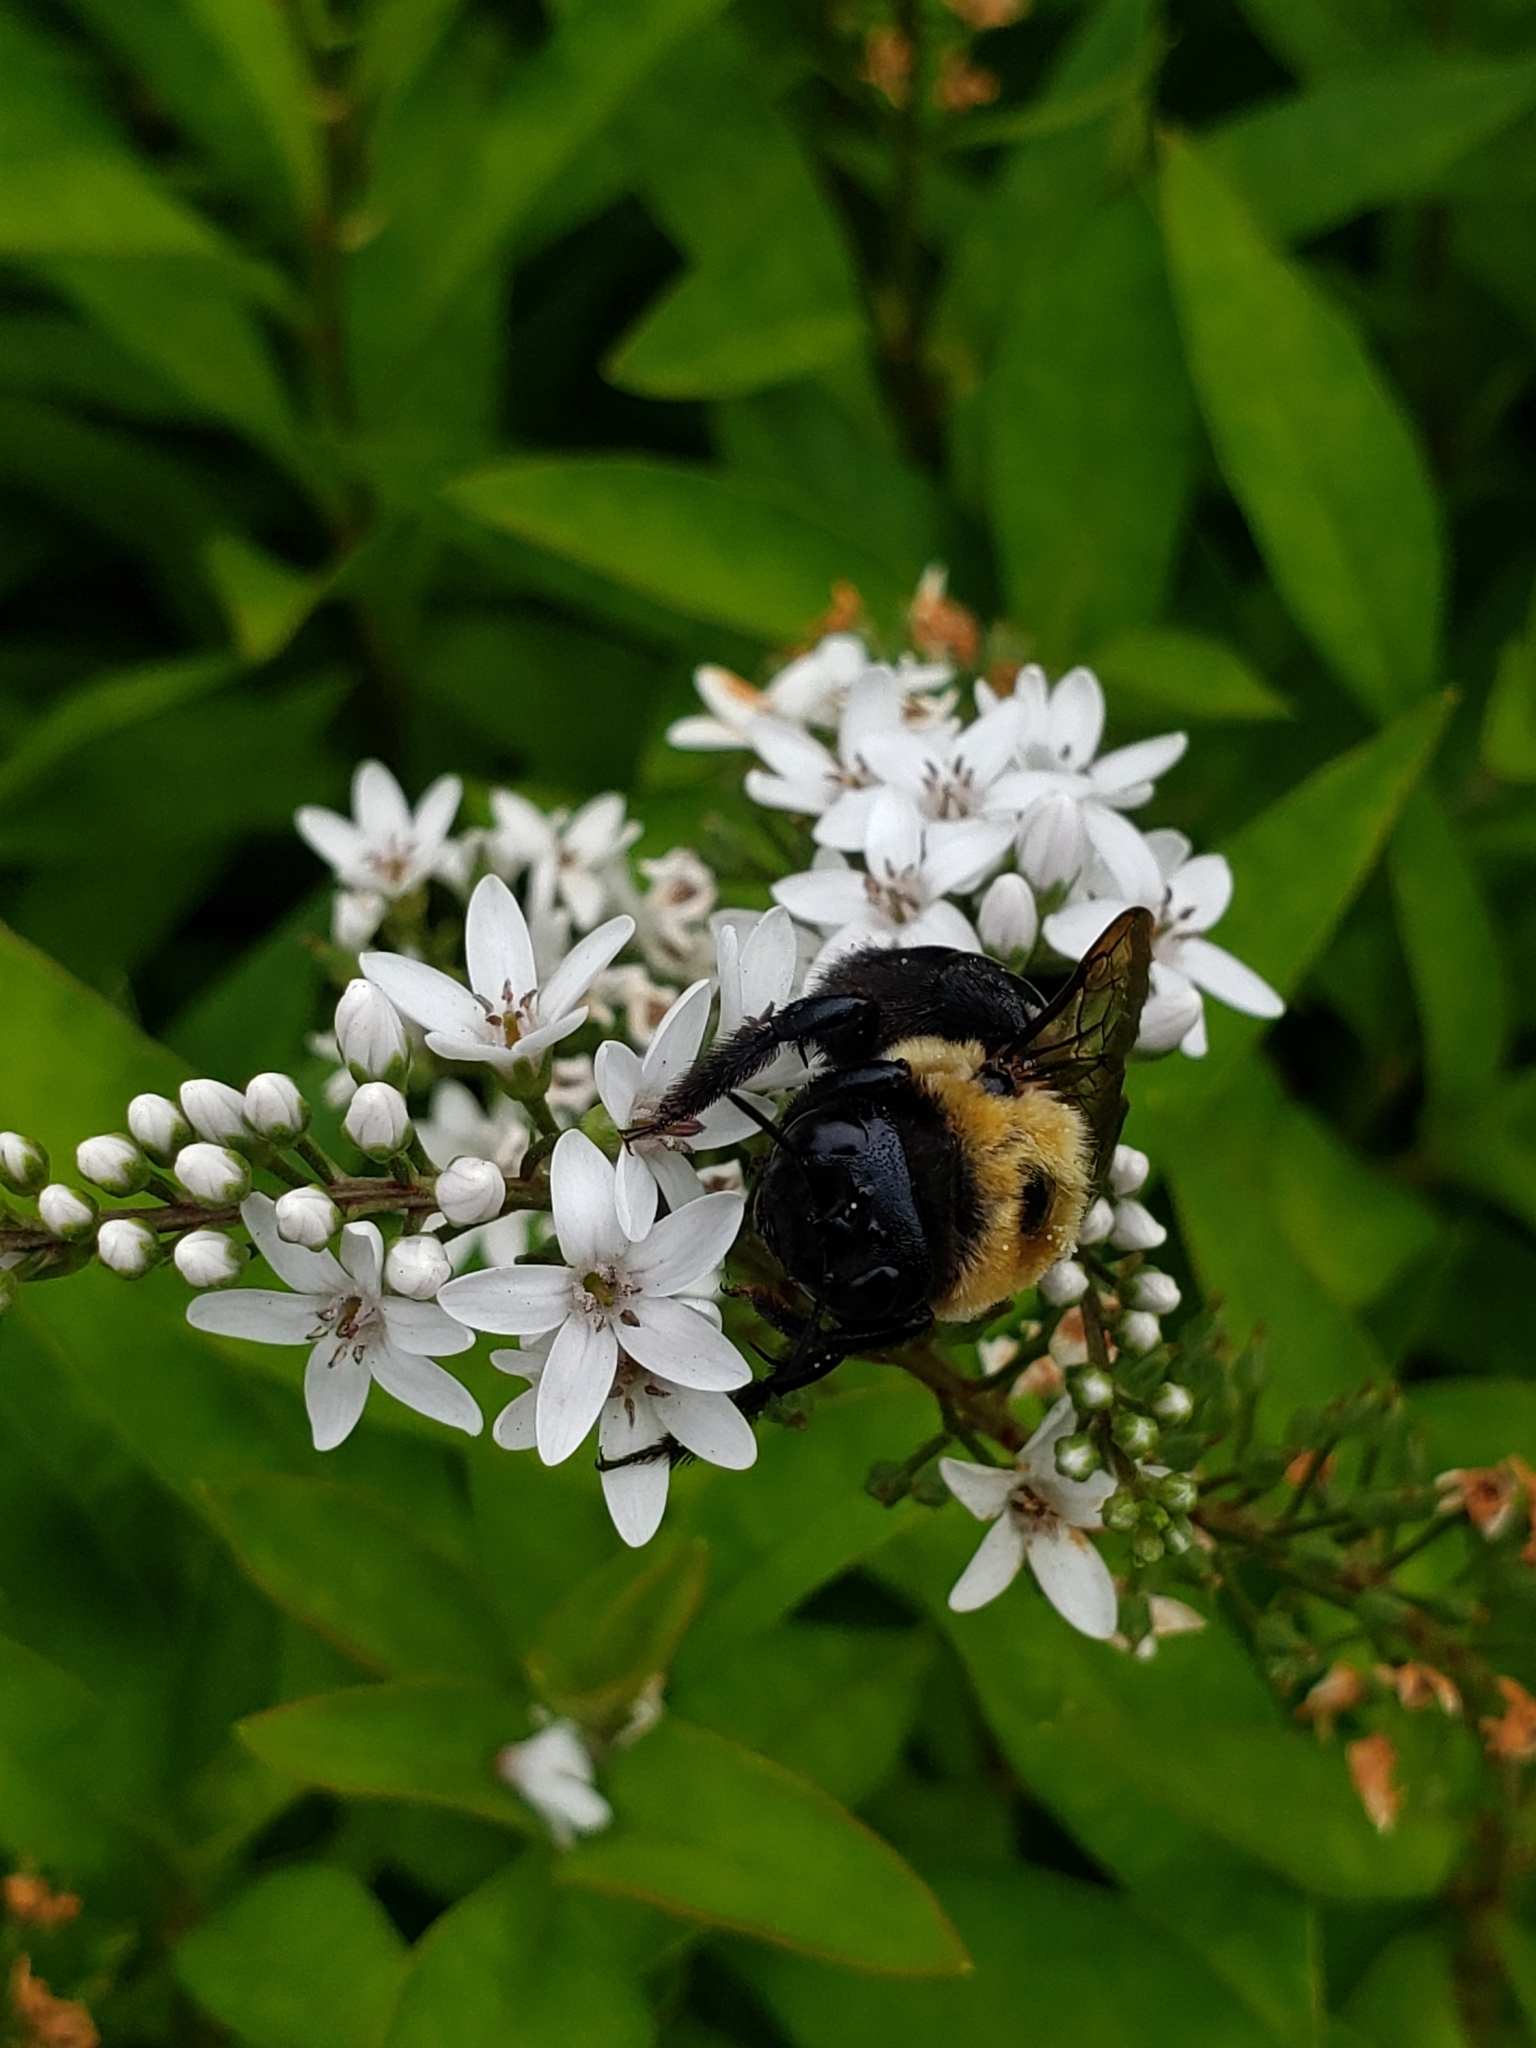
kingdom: Animalia
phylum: Arthropoda
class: Insecta
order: Hymenoptera
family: Apidae
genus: Xylocopa
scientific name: Xylocopa virginica
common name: Carpenter bee
